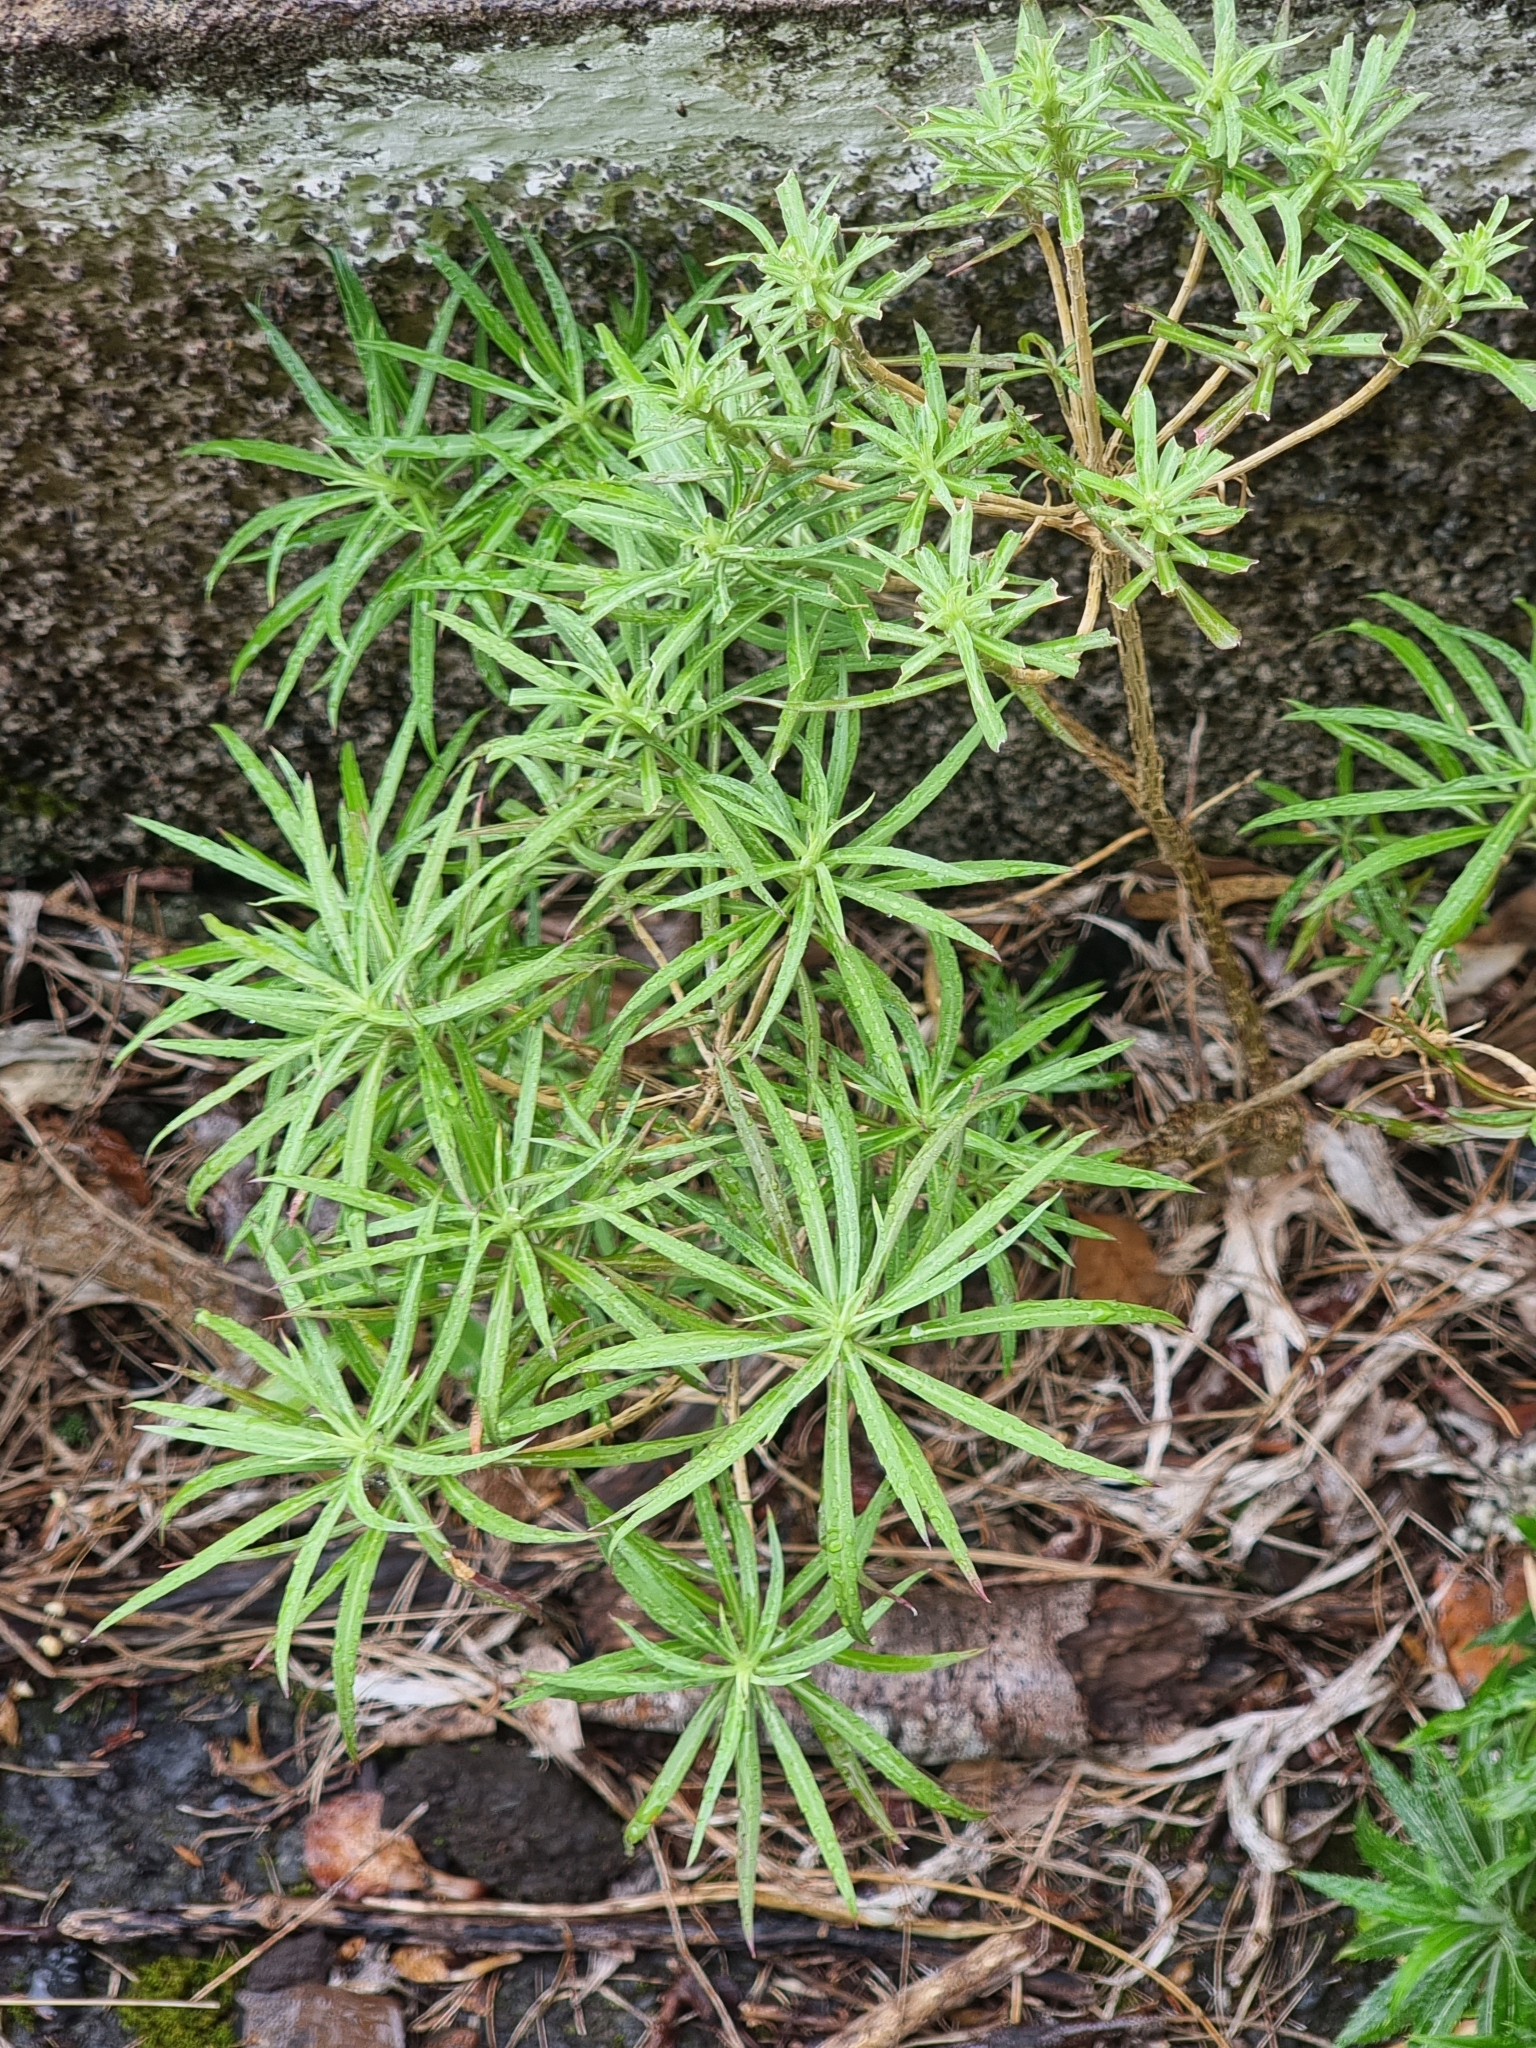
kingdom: Plantae
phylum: Tracheophyta
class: Magnoliopsida
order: Brassicales
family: Brassicaceae
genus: Erysimum
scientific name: Erysimum bicolor
